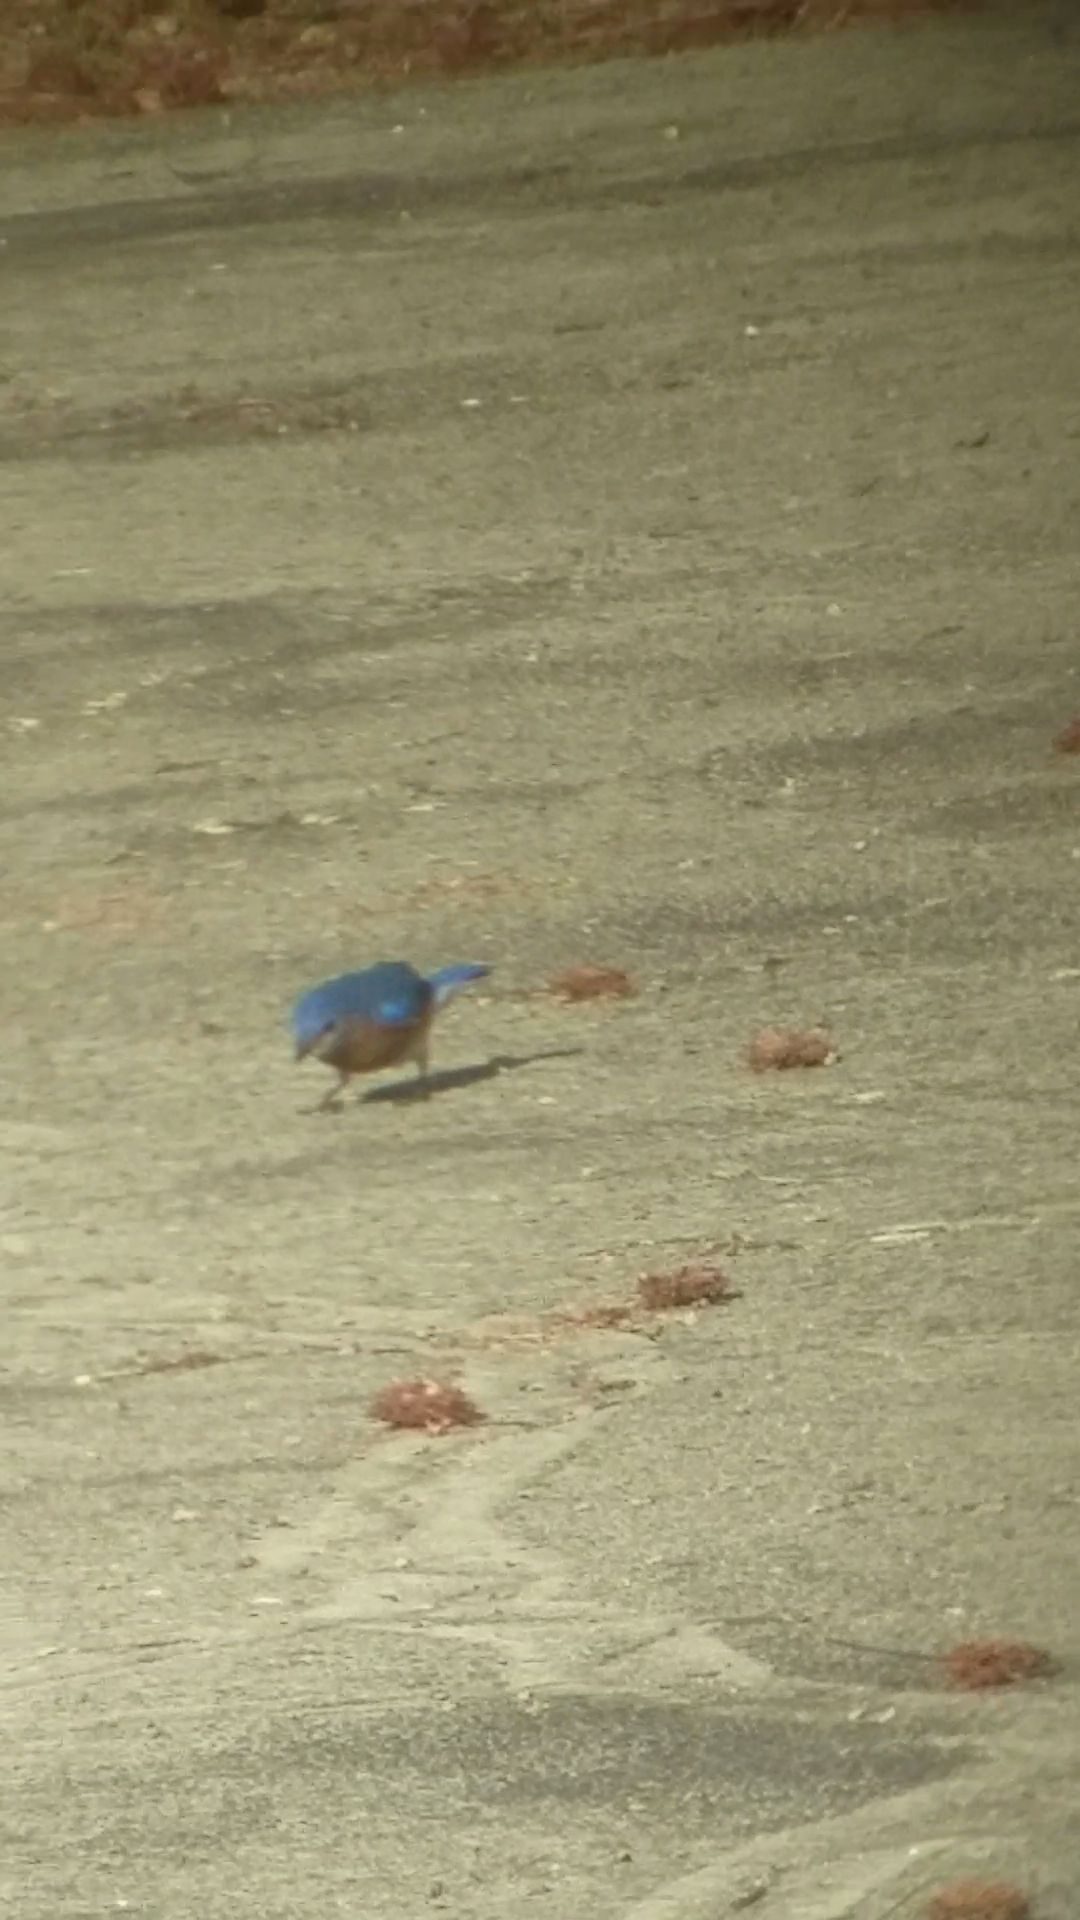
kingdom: Animalia
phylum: Chordata
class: Aves
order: Passeriformes
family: Turdidae
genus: Sialia
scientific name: Sialia sialis
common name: Eastern bluebird
